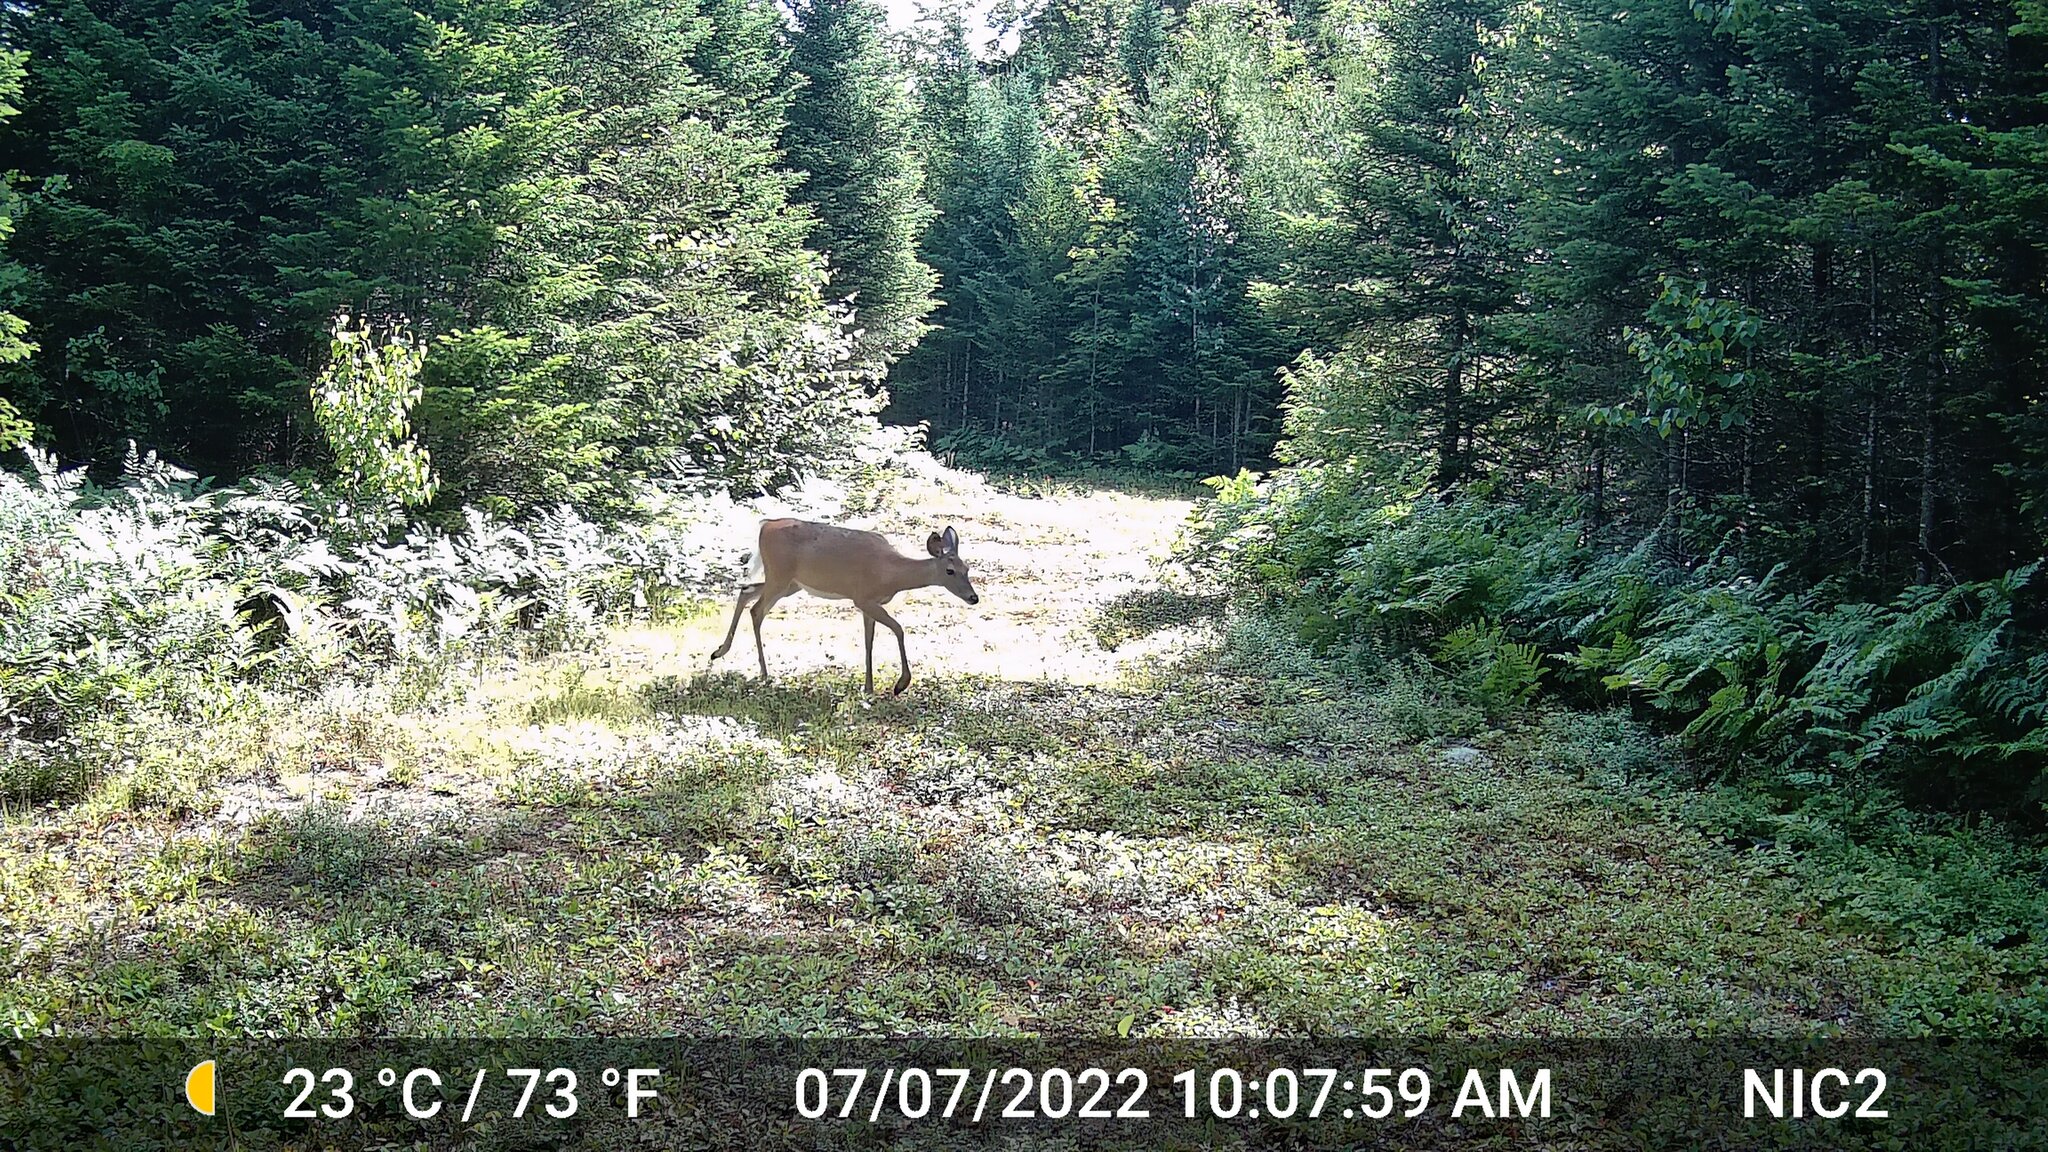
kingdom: Animalia
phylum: Chordata
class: Mammalia
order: Artiodactyla
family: Cervidae
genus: Odocoileus
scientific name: Odocoileus virginianus
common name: White-tailed deer
